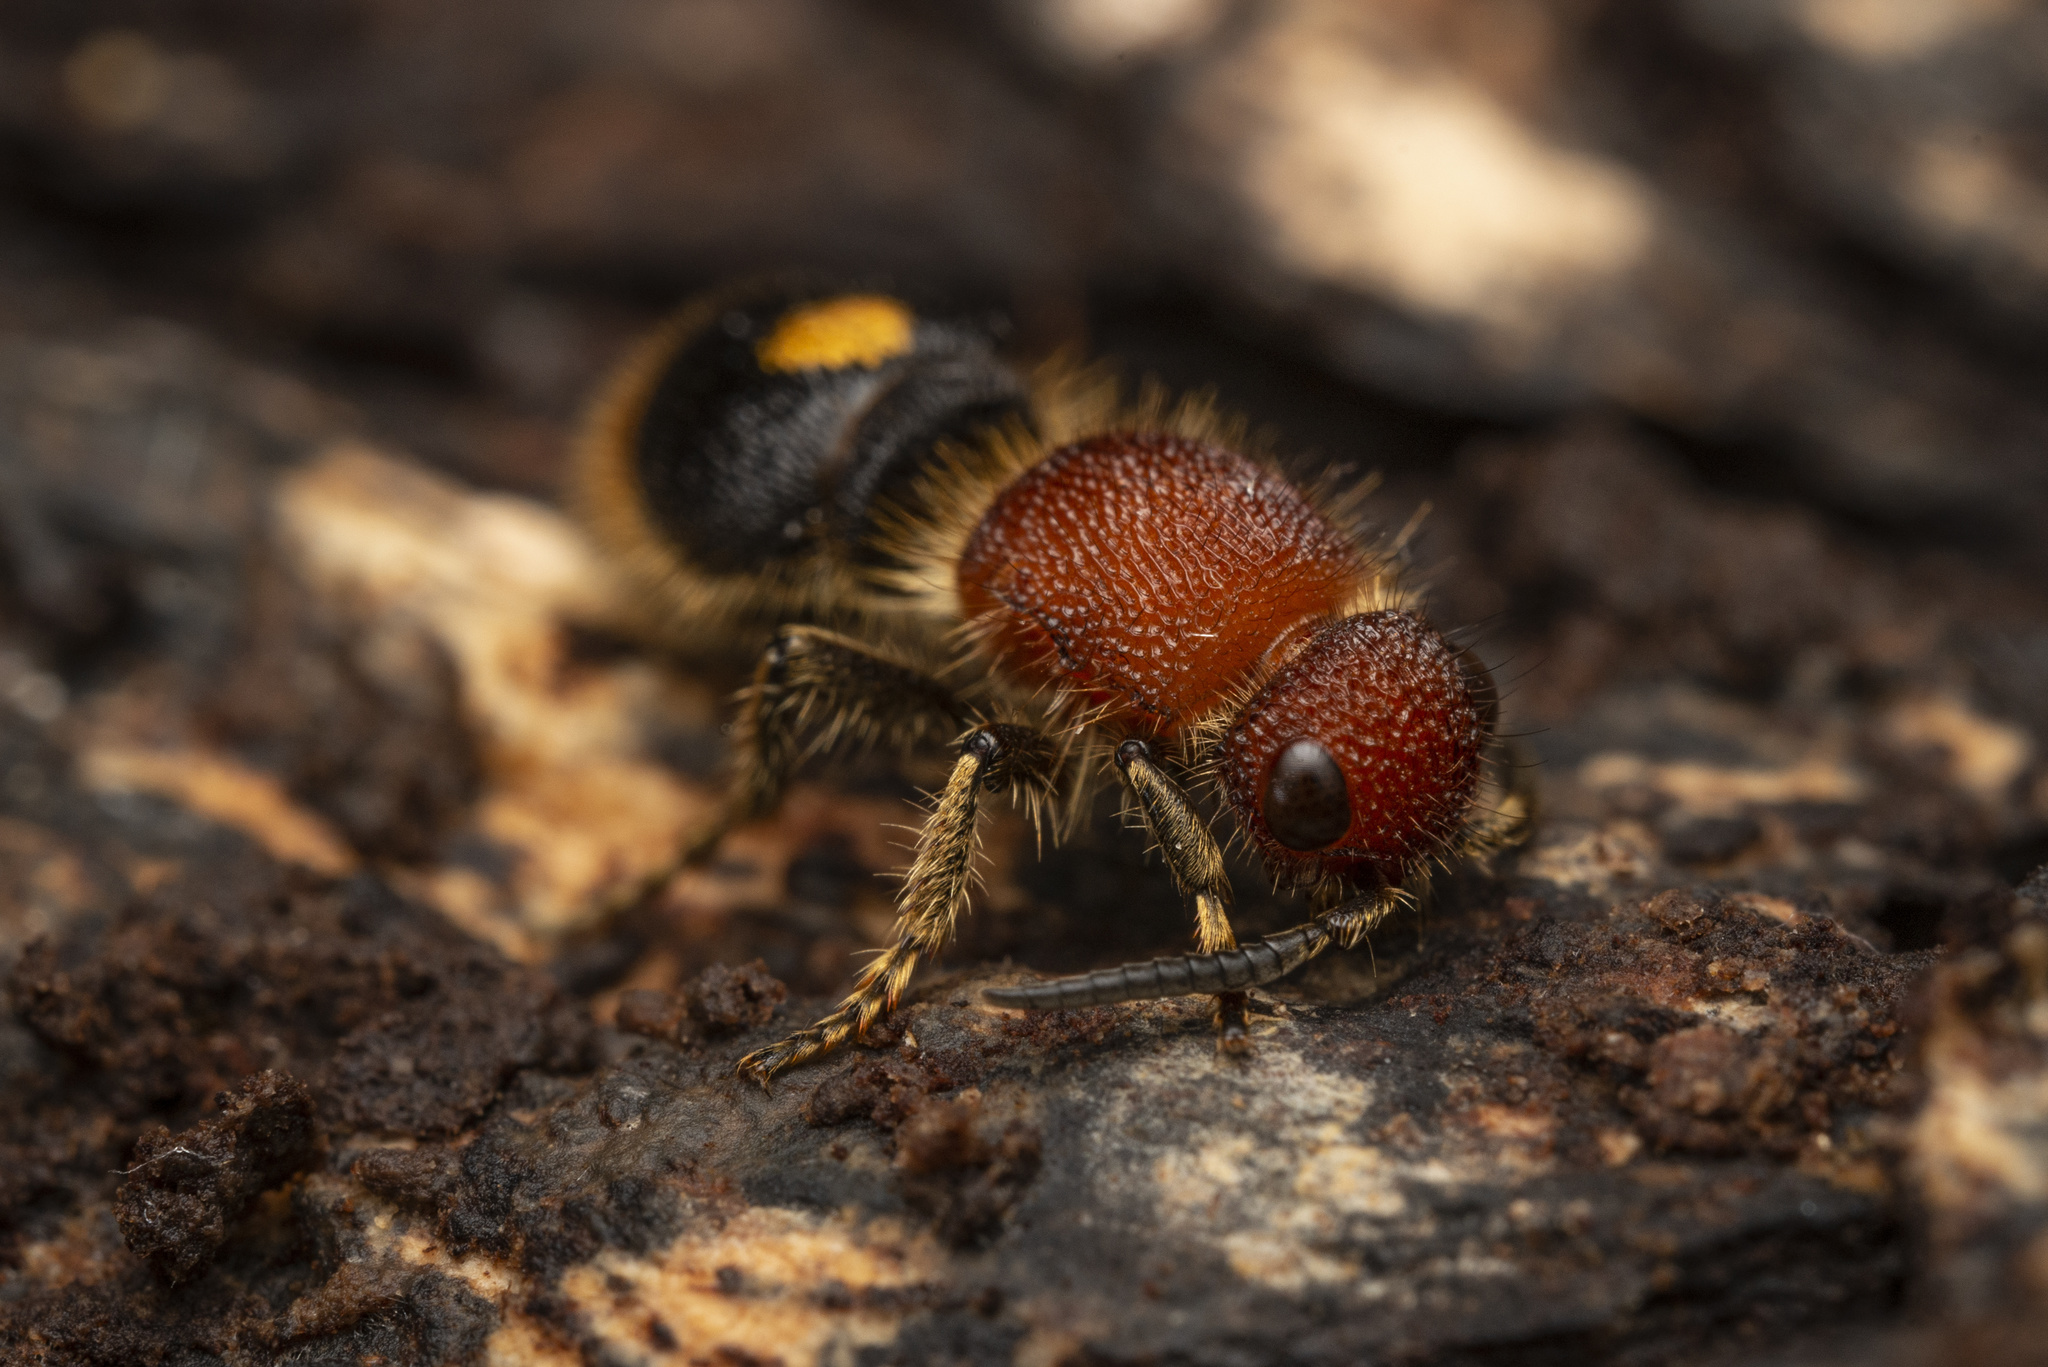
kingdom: Animalia
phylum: Arthropoda
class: Insecta
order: Hymenoptera
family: Mutillidae
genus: Odontomutilla
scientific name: Odontomutilla uranioides
